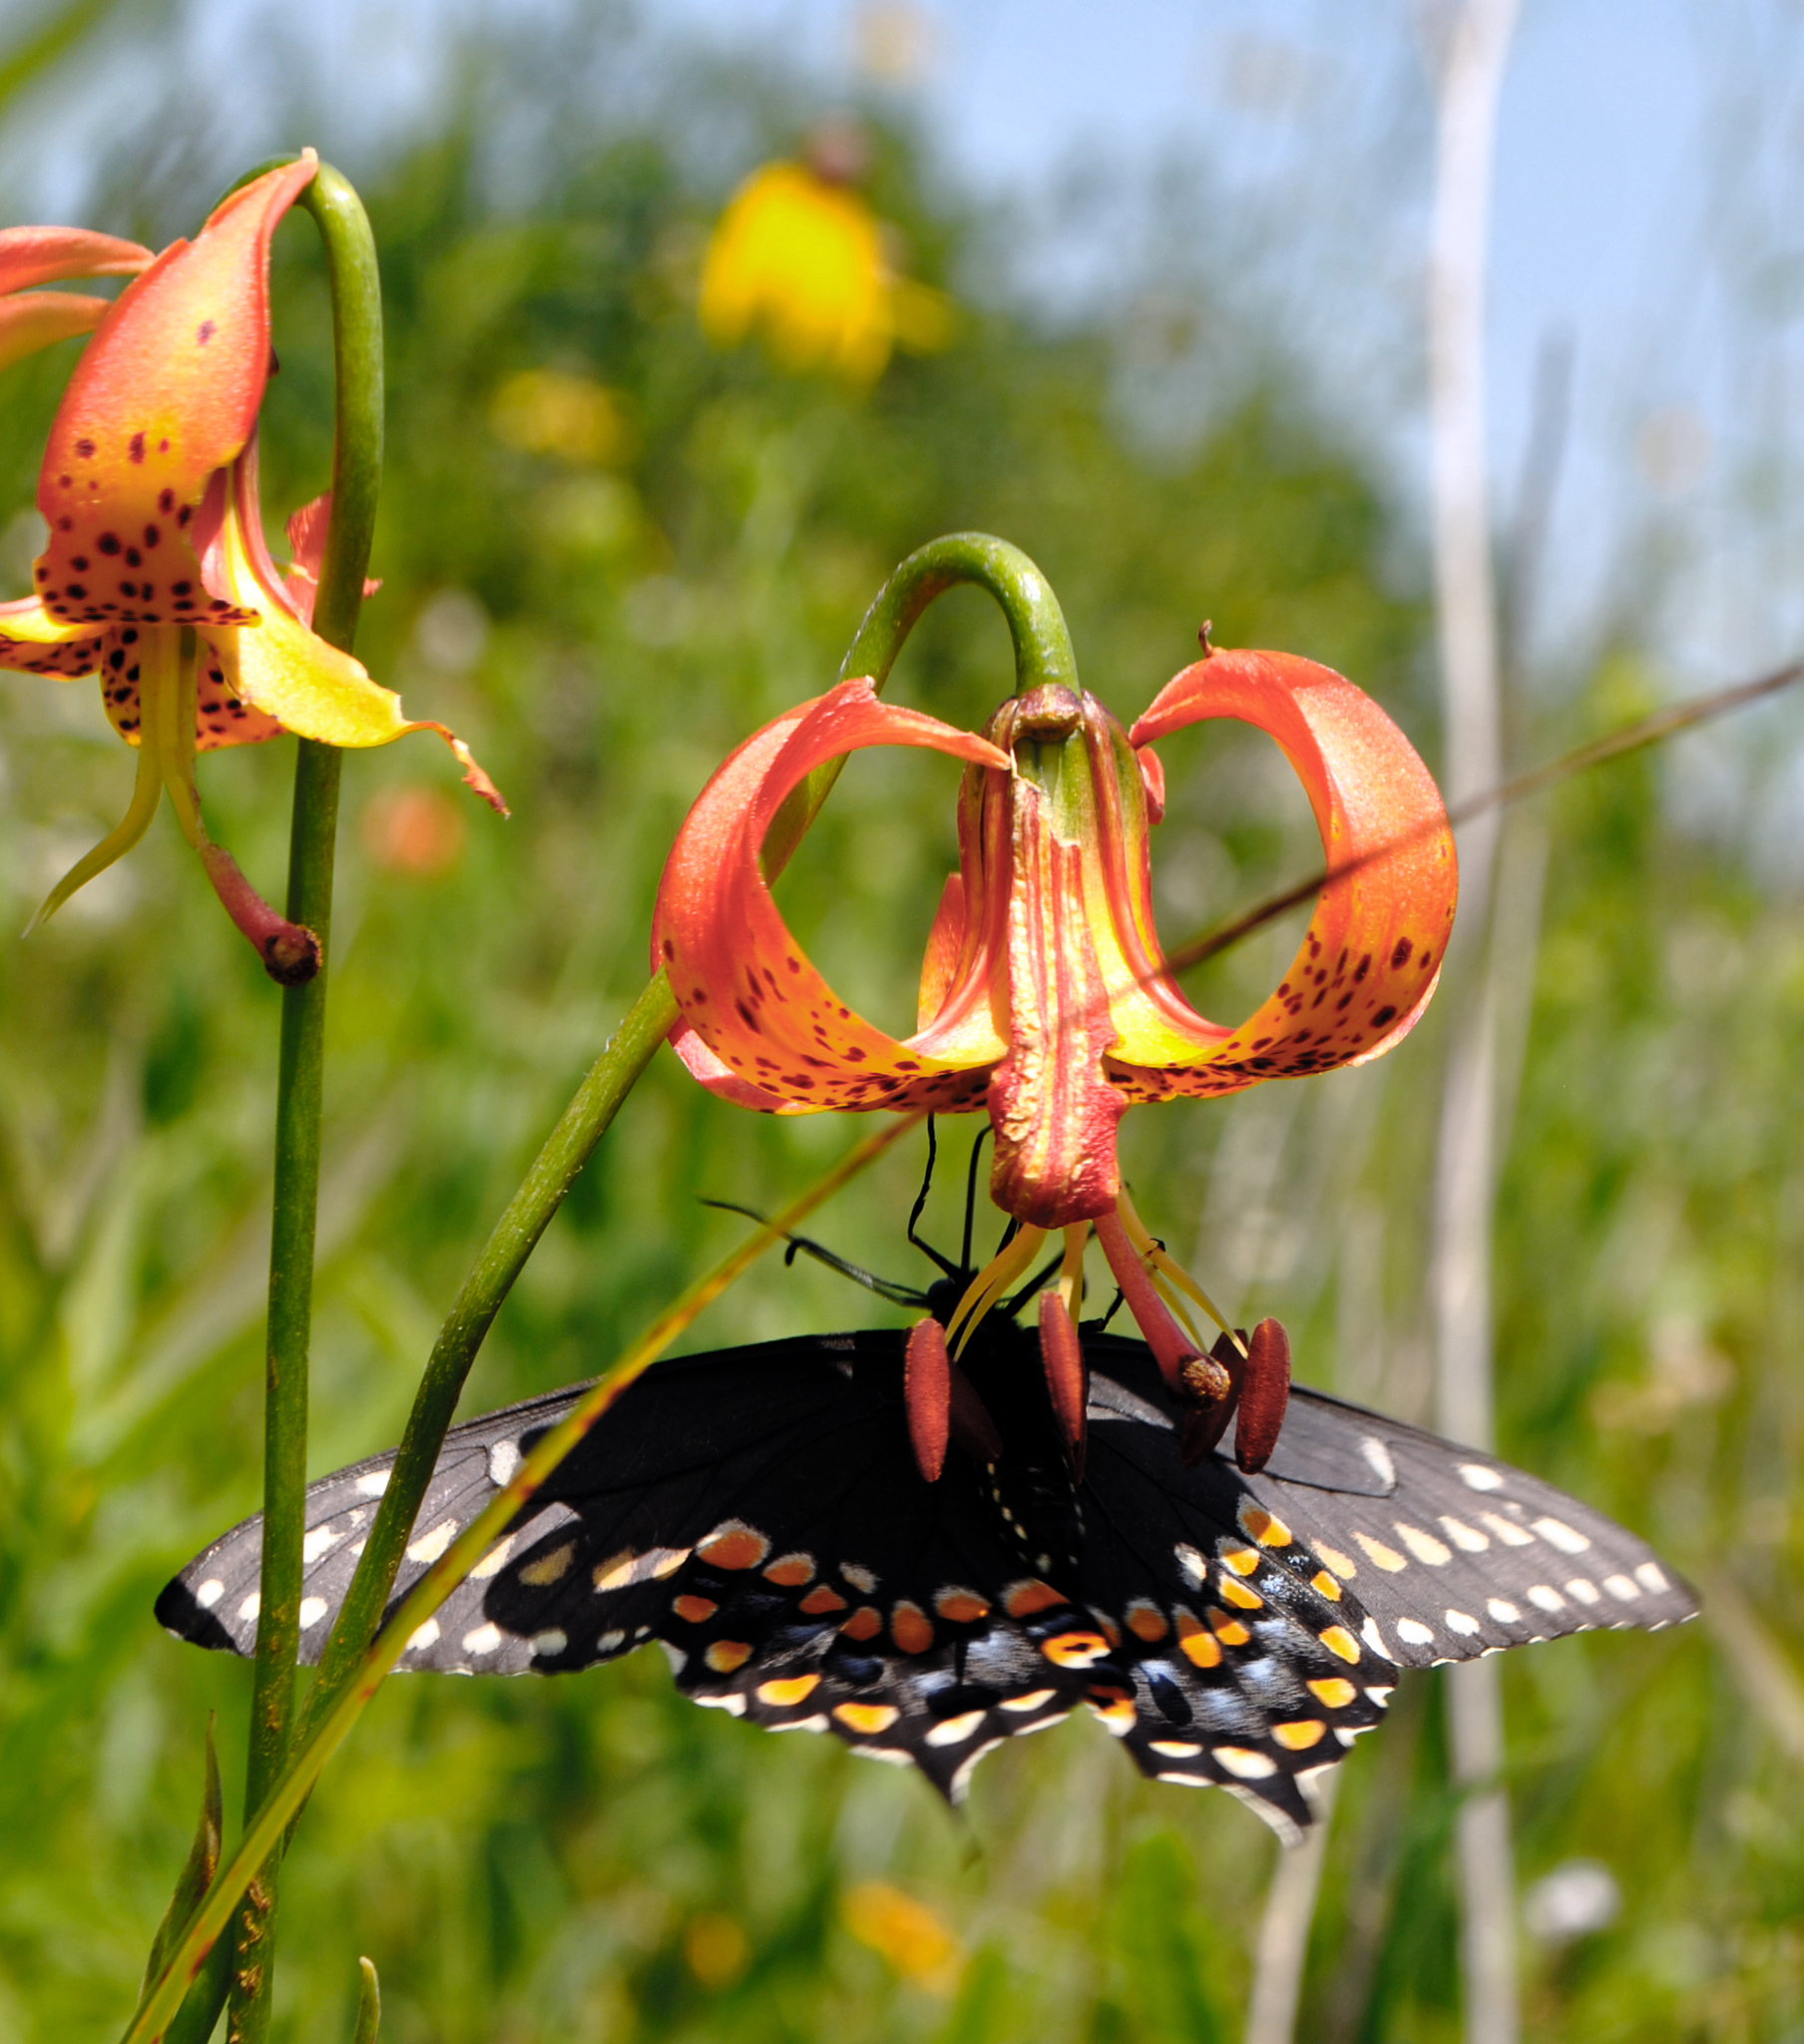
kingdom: Animalia
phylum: Arthropoda
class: Insecta
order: Lepidoptera
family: Papilionidae
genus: Papilio
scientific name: Papilio polyxenes
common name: Black swallowtail
